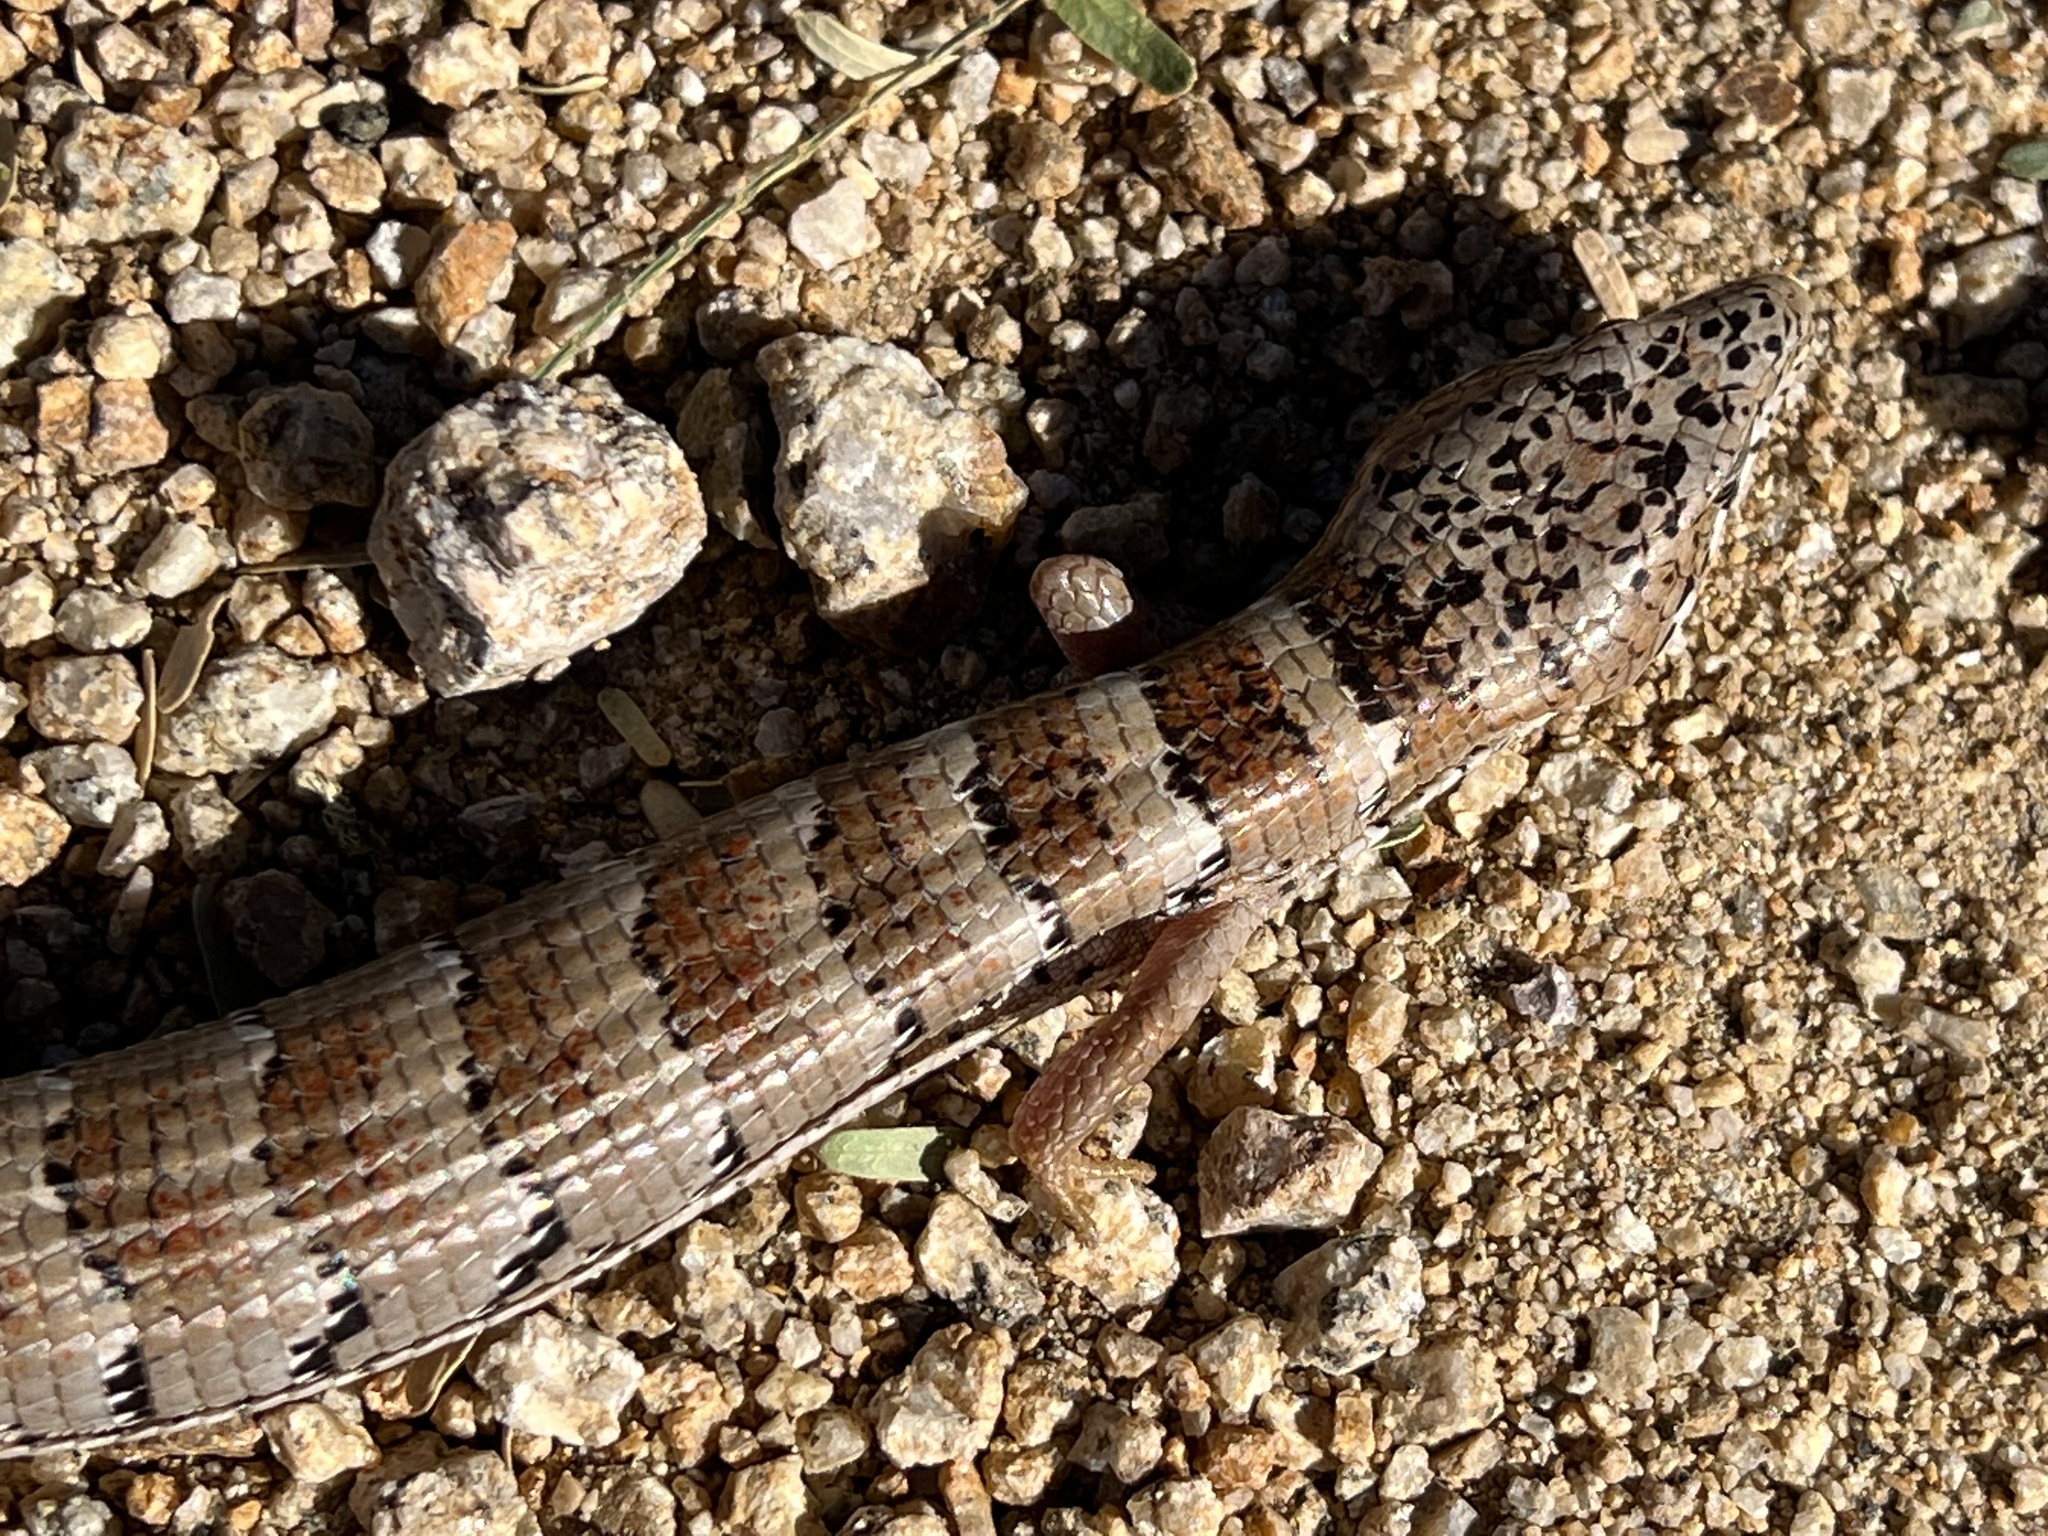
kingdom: Animalia
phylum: Chordata
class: Squamata
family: Anguidae
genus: Elgaria
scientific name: Elgaria kingii
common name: Madrean alligator lizard
